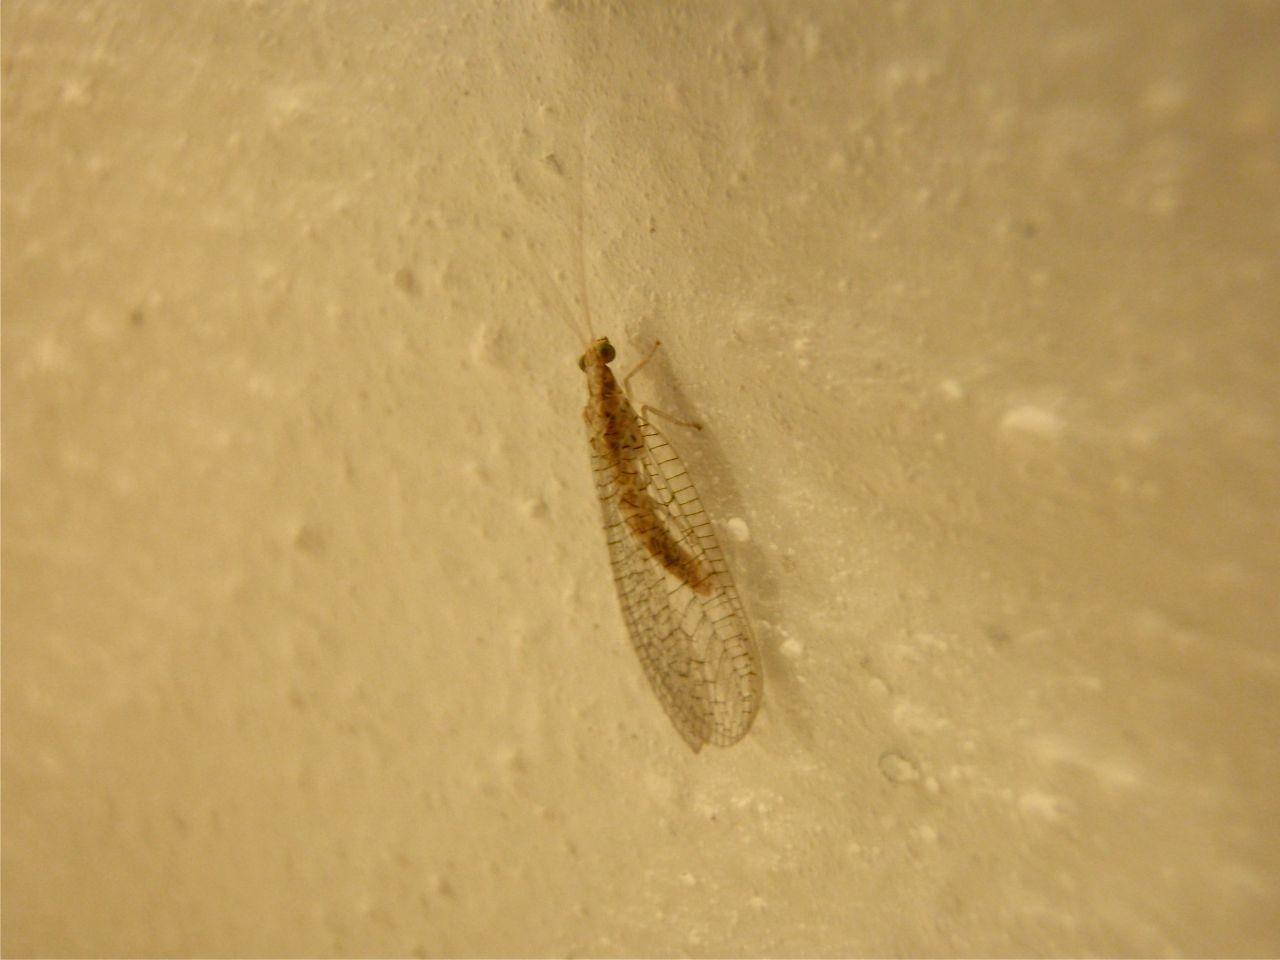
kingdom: Animalia
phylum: Arthropoda
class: Insecta
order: Neuroptera
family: Chrysopidae
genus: Italochrysa
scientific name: Italochrysa italica
